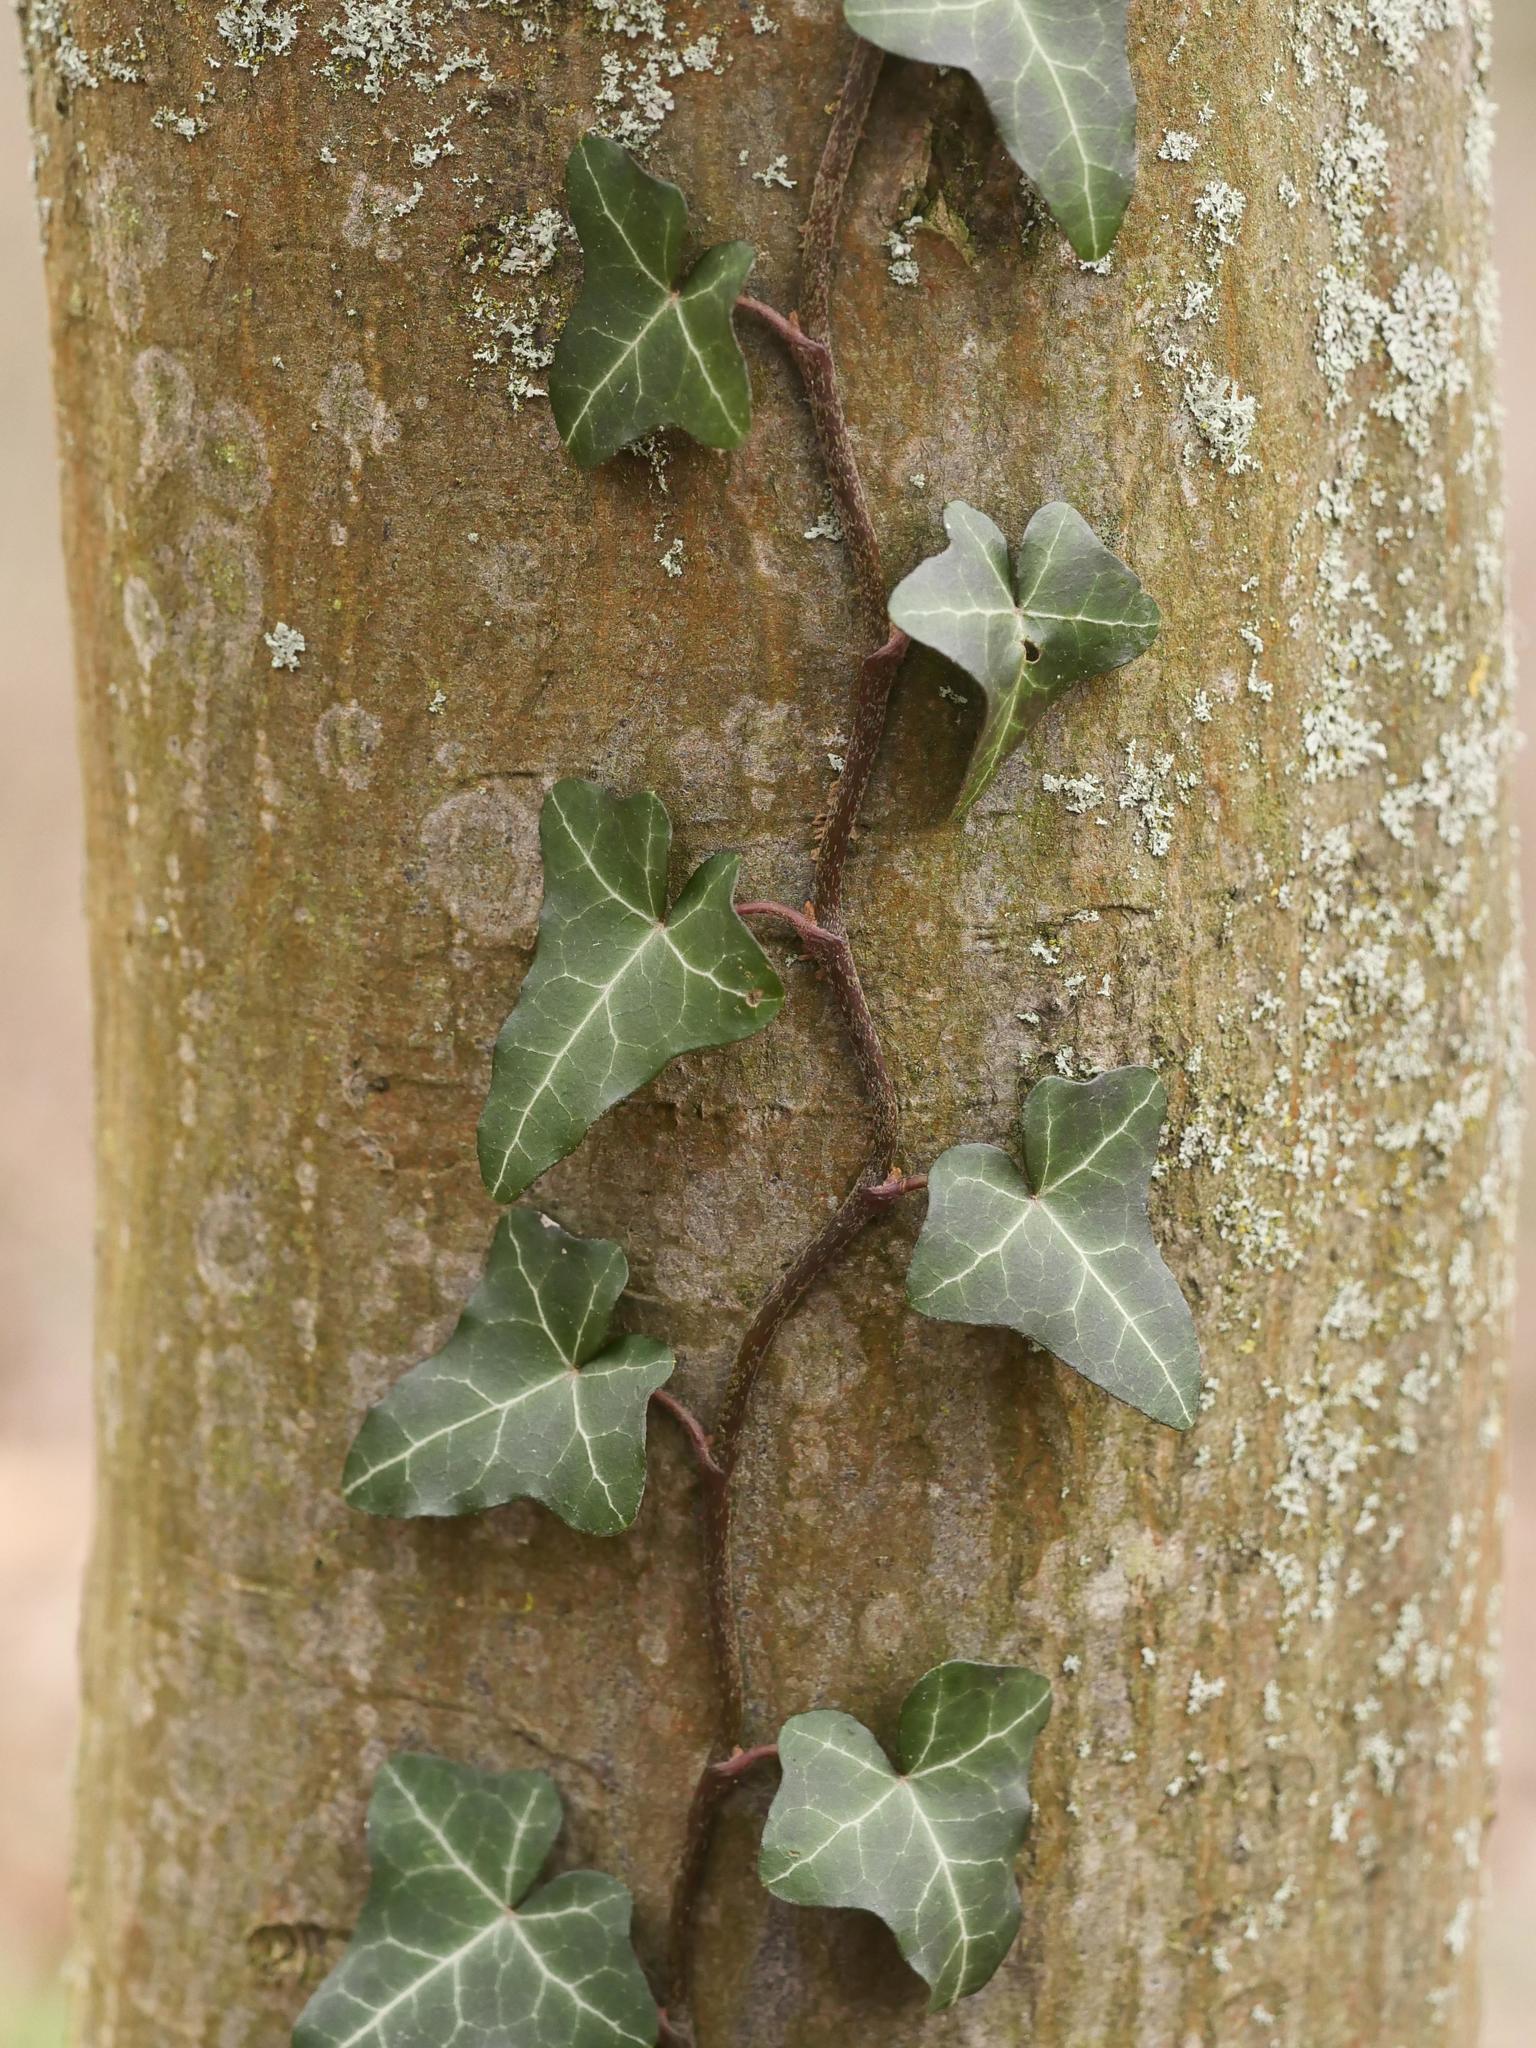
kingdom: Plantae
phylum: Tracheophyta
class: Magnoliopsida
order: Apiales
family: Araliaceae
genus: Hedera
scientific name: Hedera helix
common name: Ivy
